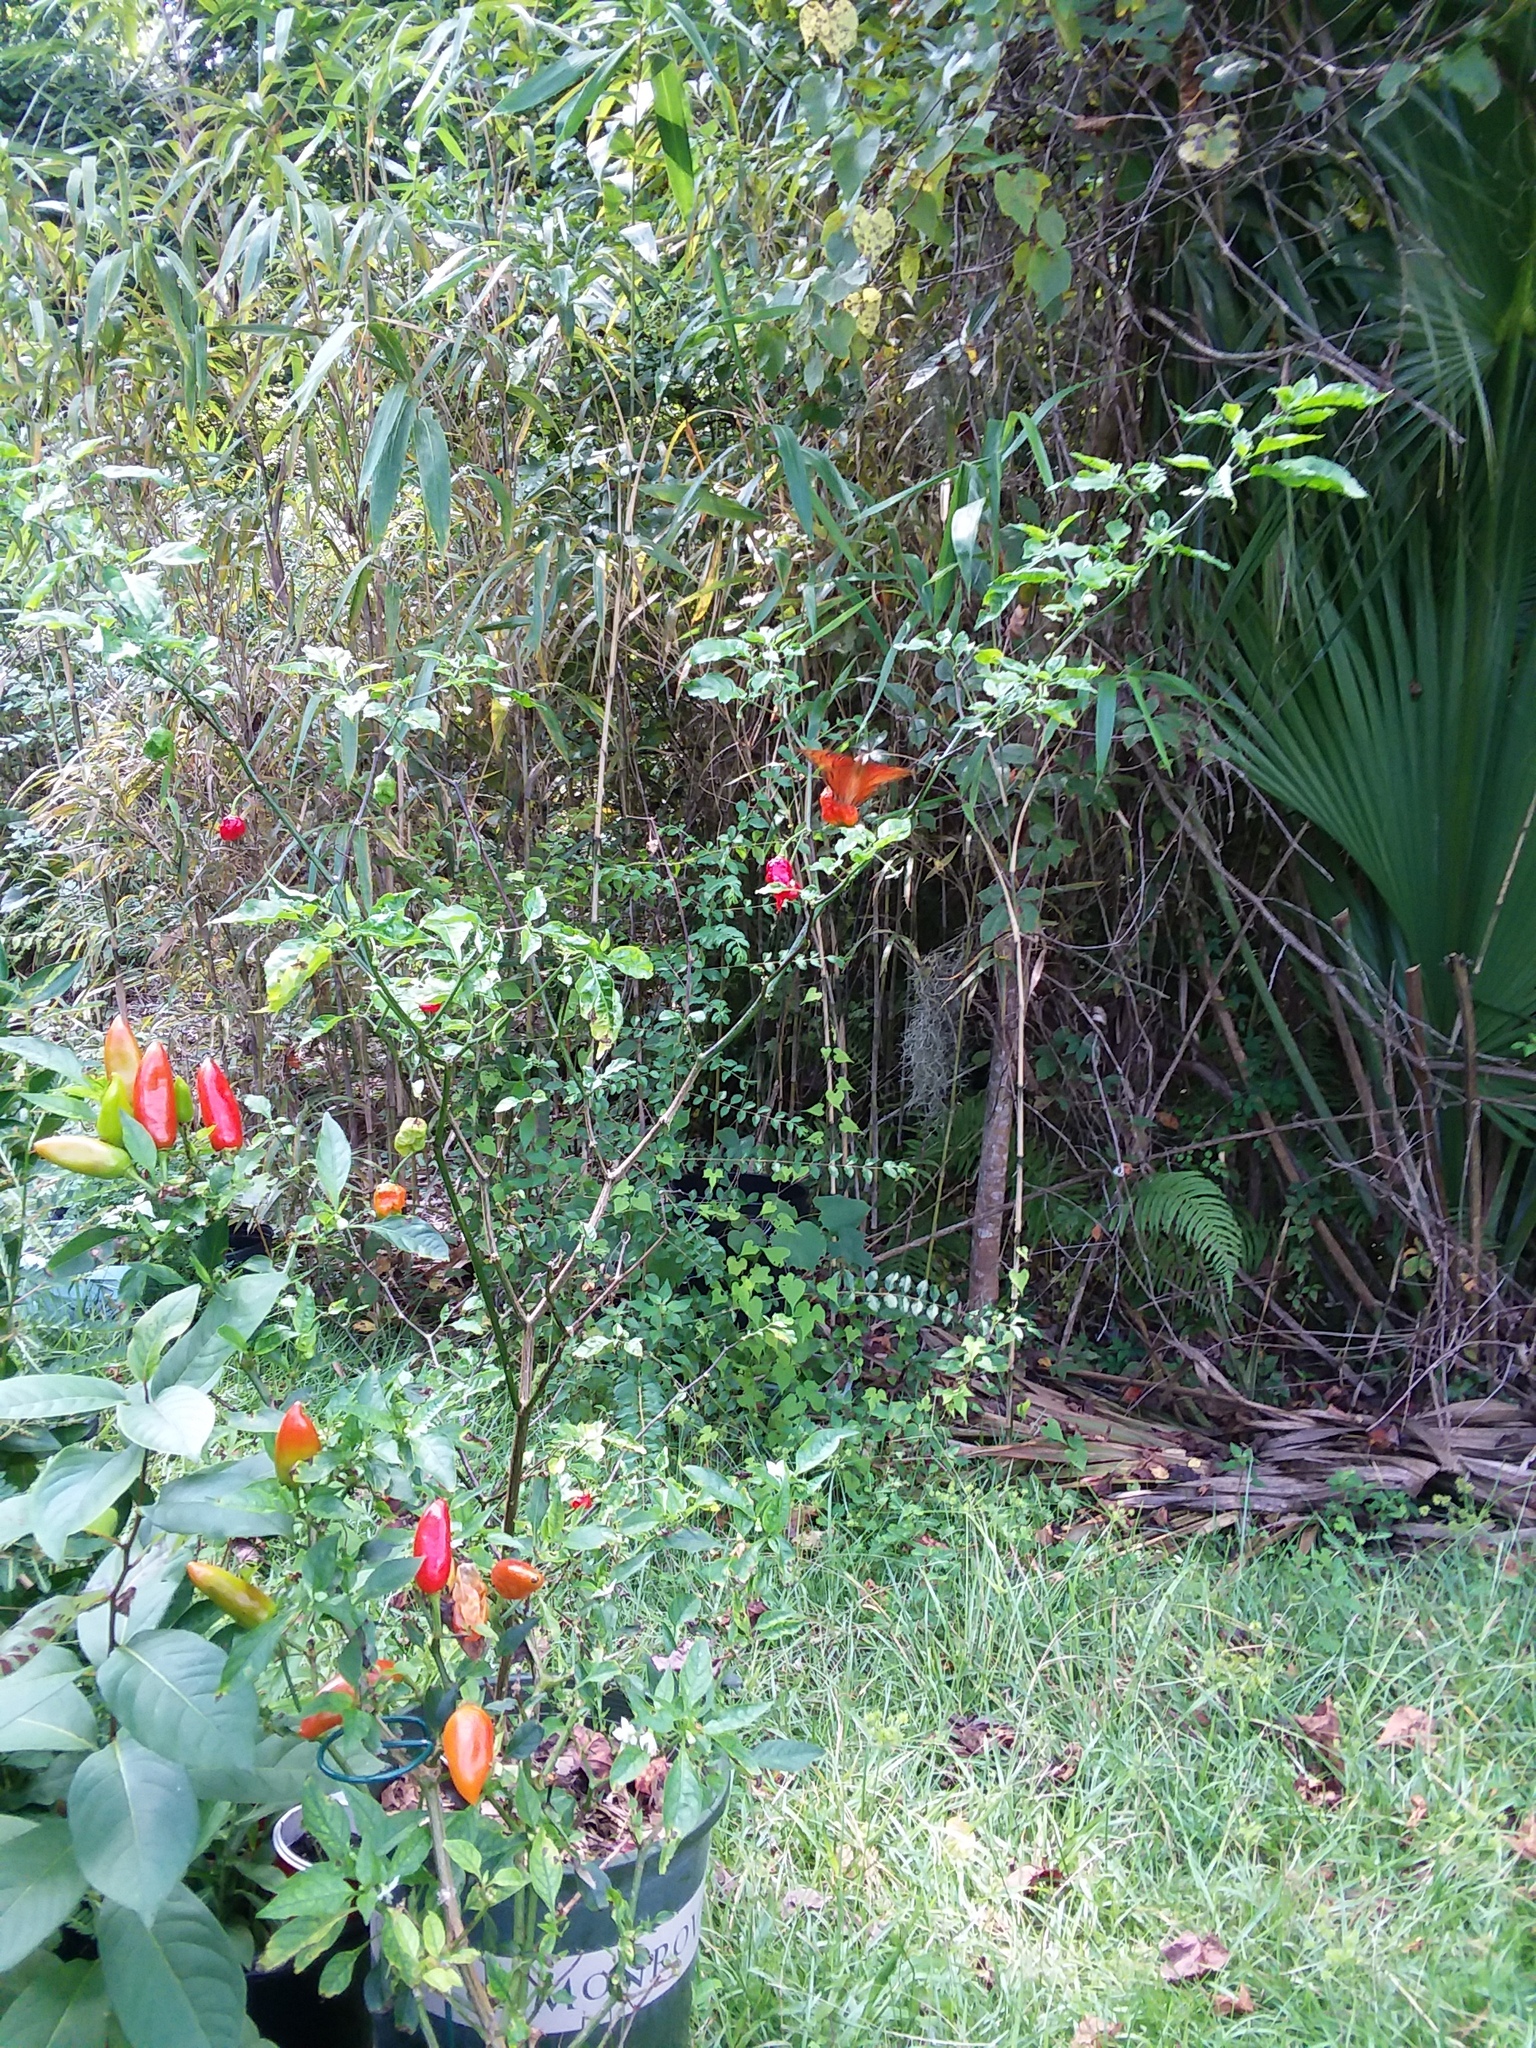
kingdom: Animalia
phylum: Arthropoda
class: Insecta
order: Lepidoptera
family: Nymphalidae
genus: Dione
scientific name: Dione vanillae
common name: Gulf fritillary
